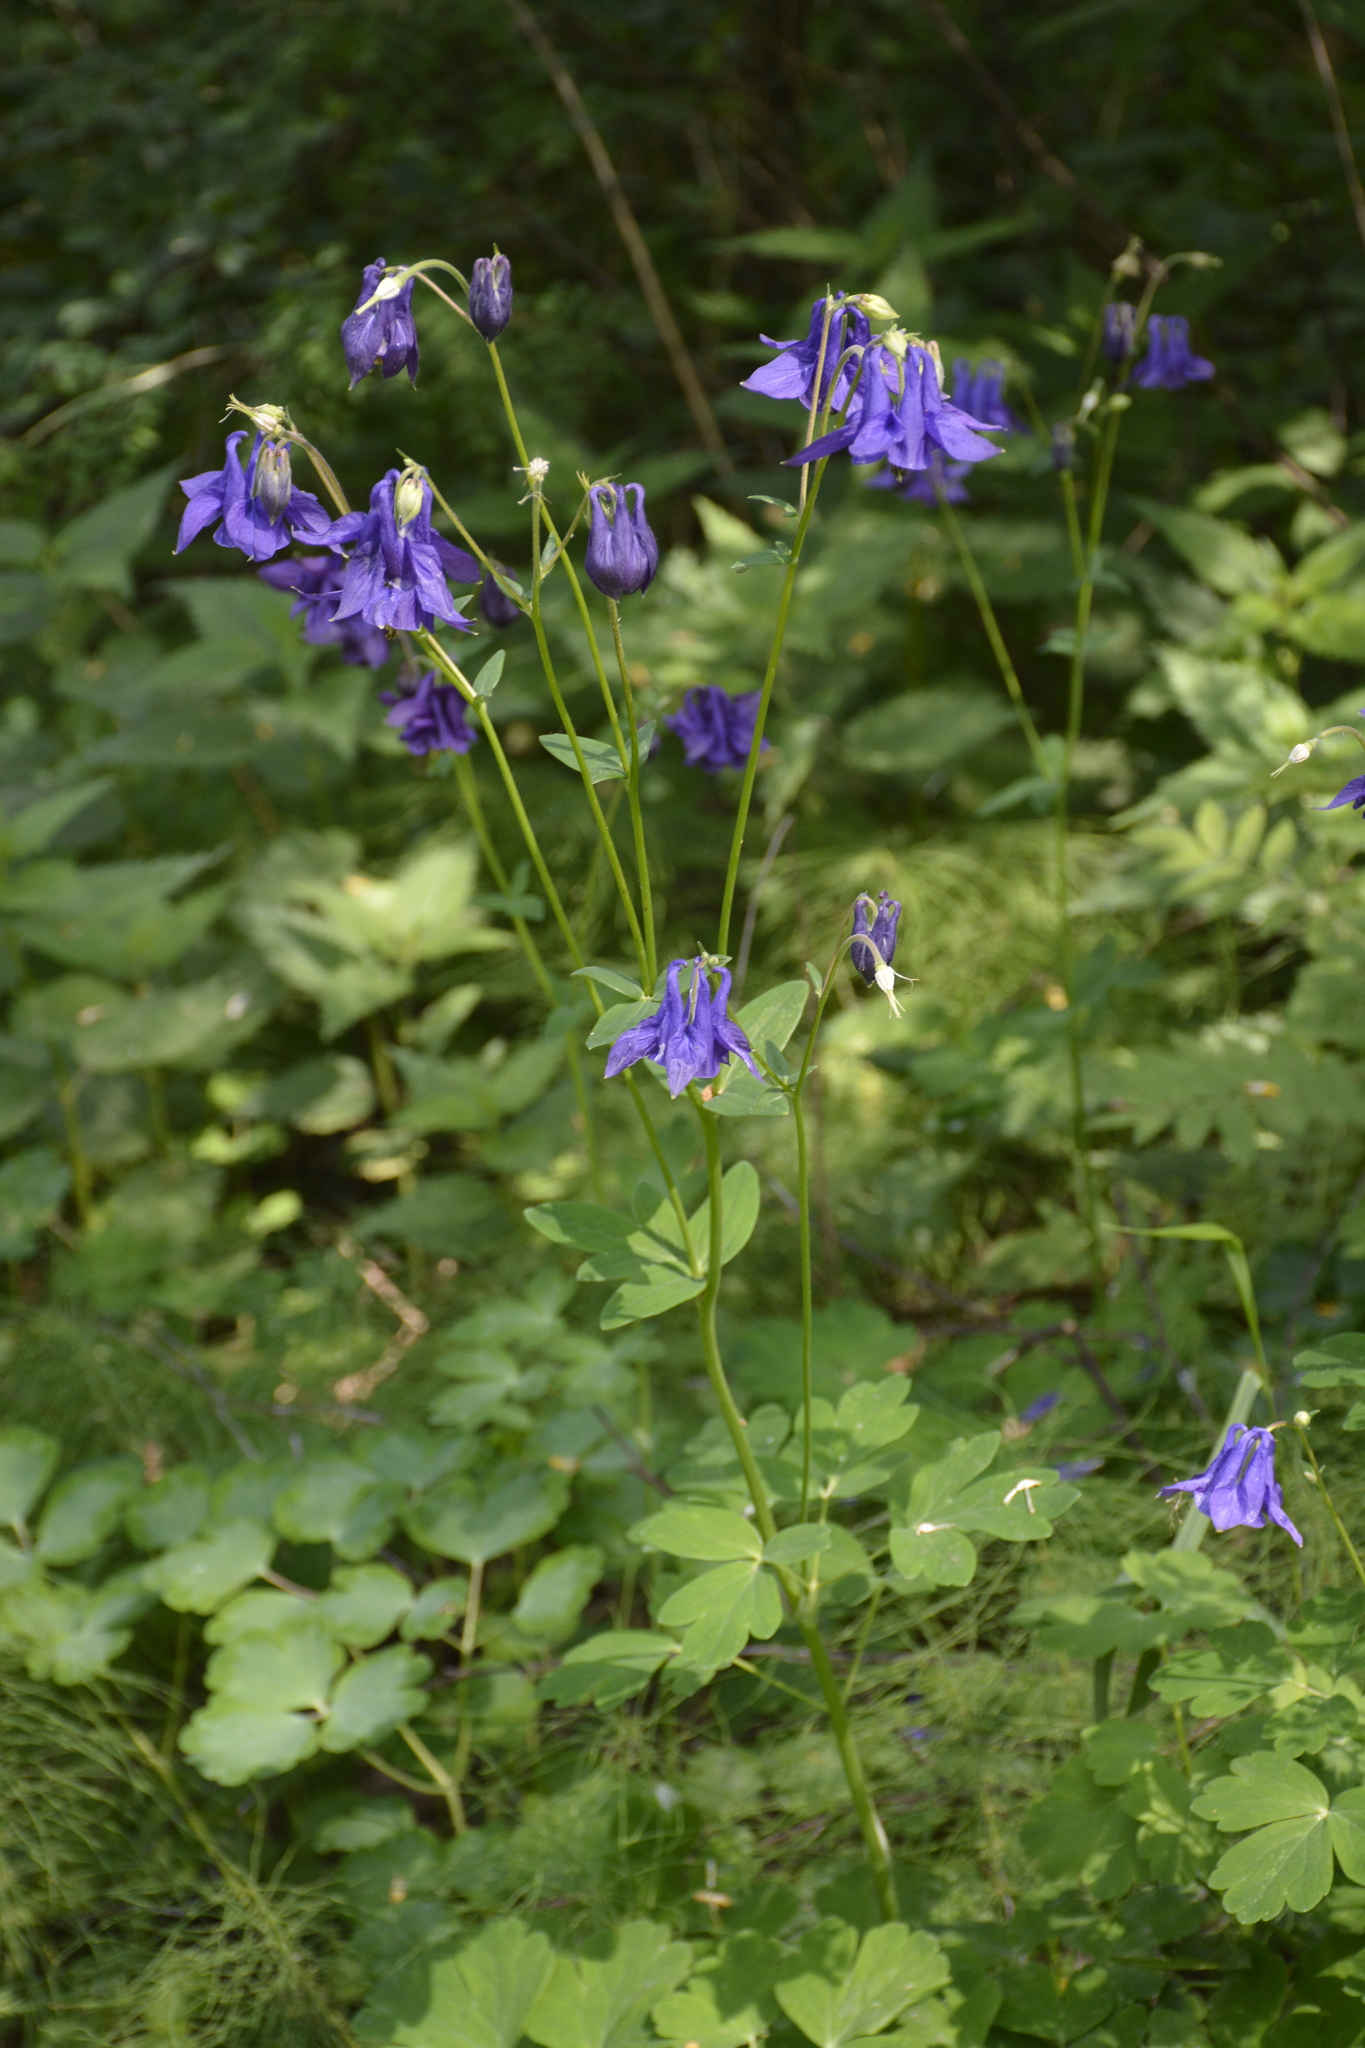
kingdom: Plantae
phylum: Tracheophyta
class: Magnoliopsida
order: Ranunculales
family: Ranunculaceae
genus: Aquilegia
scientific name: Aquilegia vulgaris
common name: Columbine
